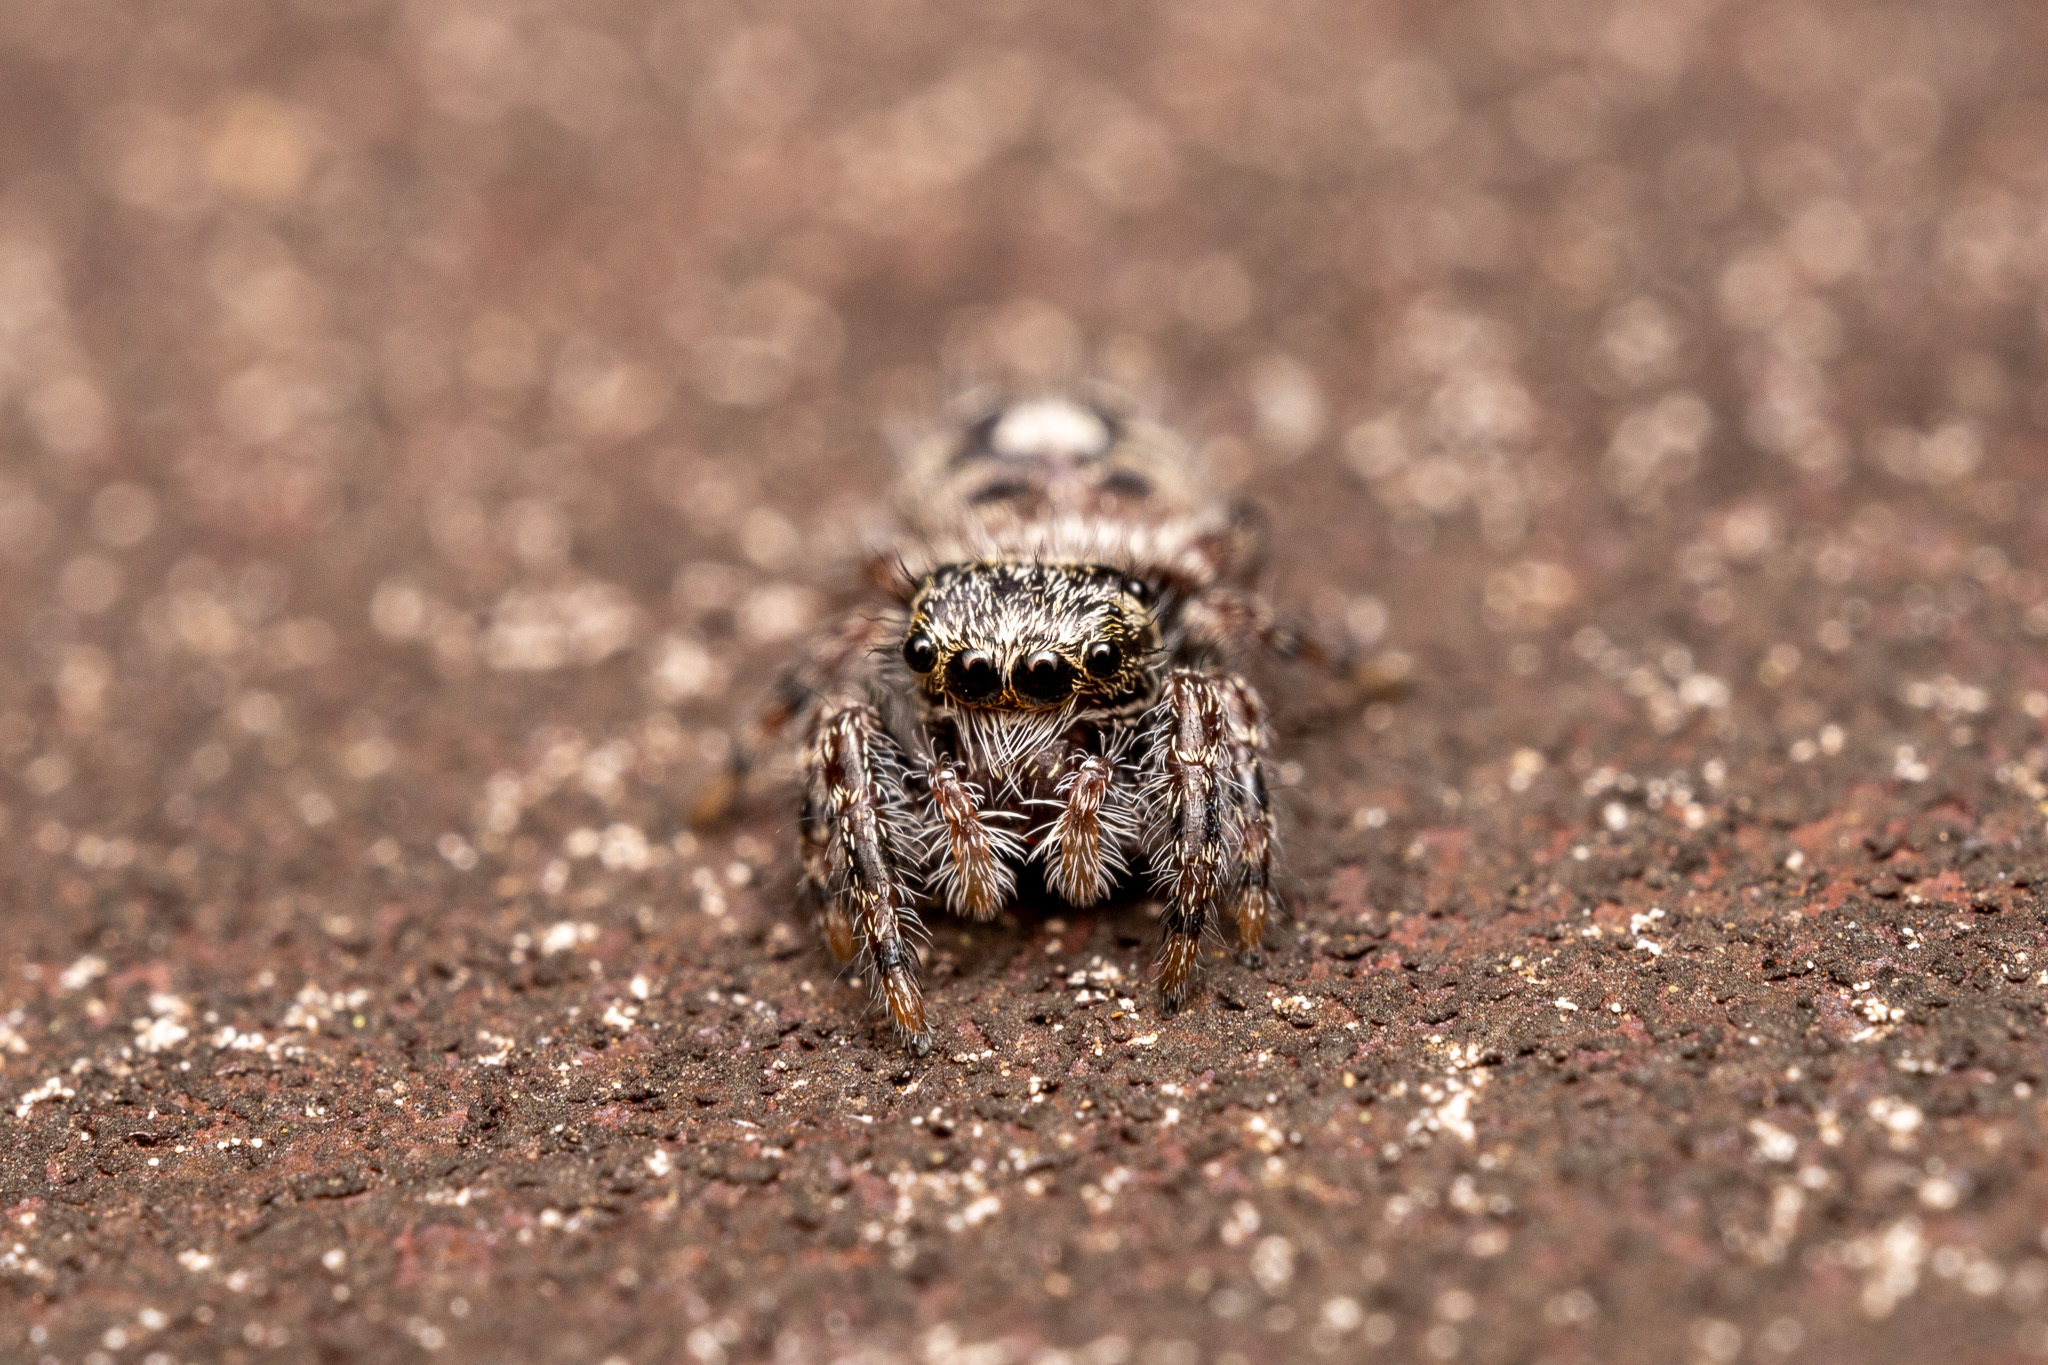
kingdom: Animalia
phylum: Arthropoda
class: Arachnida
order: Araneae
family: Salticidae
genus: Phidippus
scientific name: Phidippus putnami
